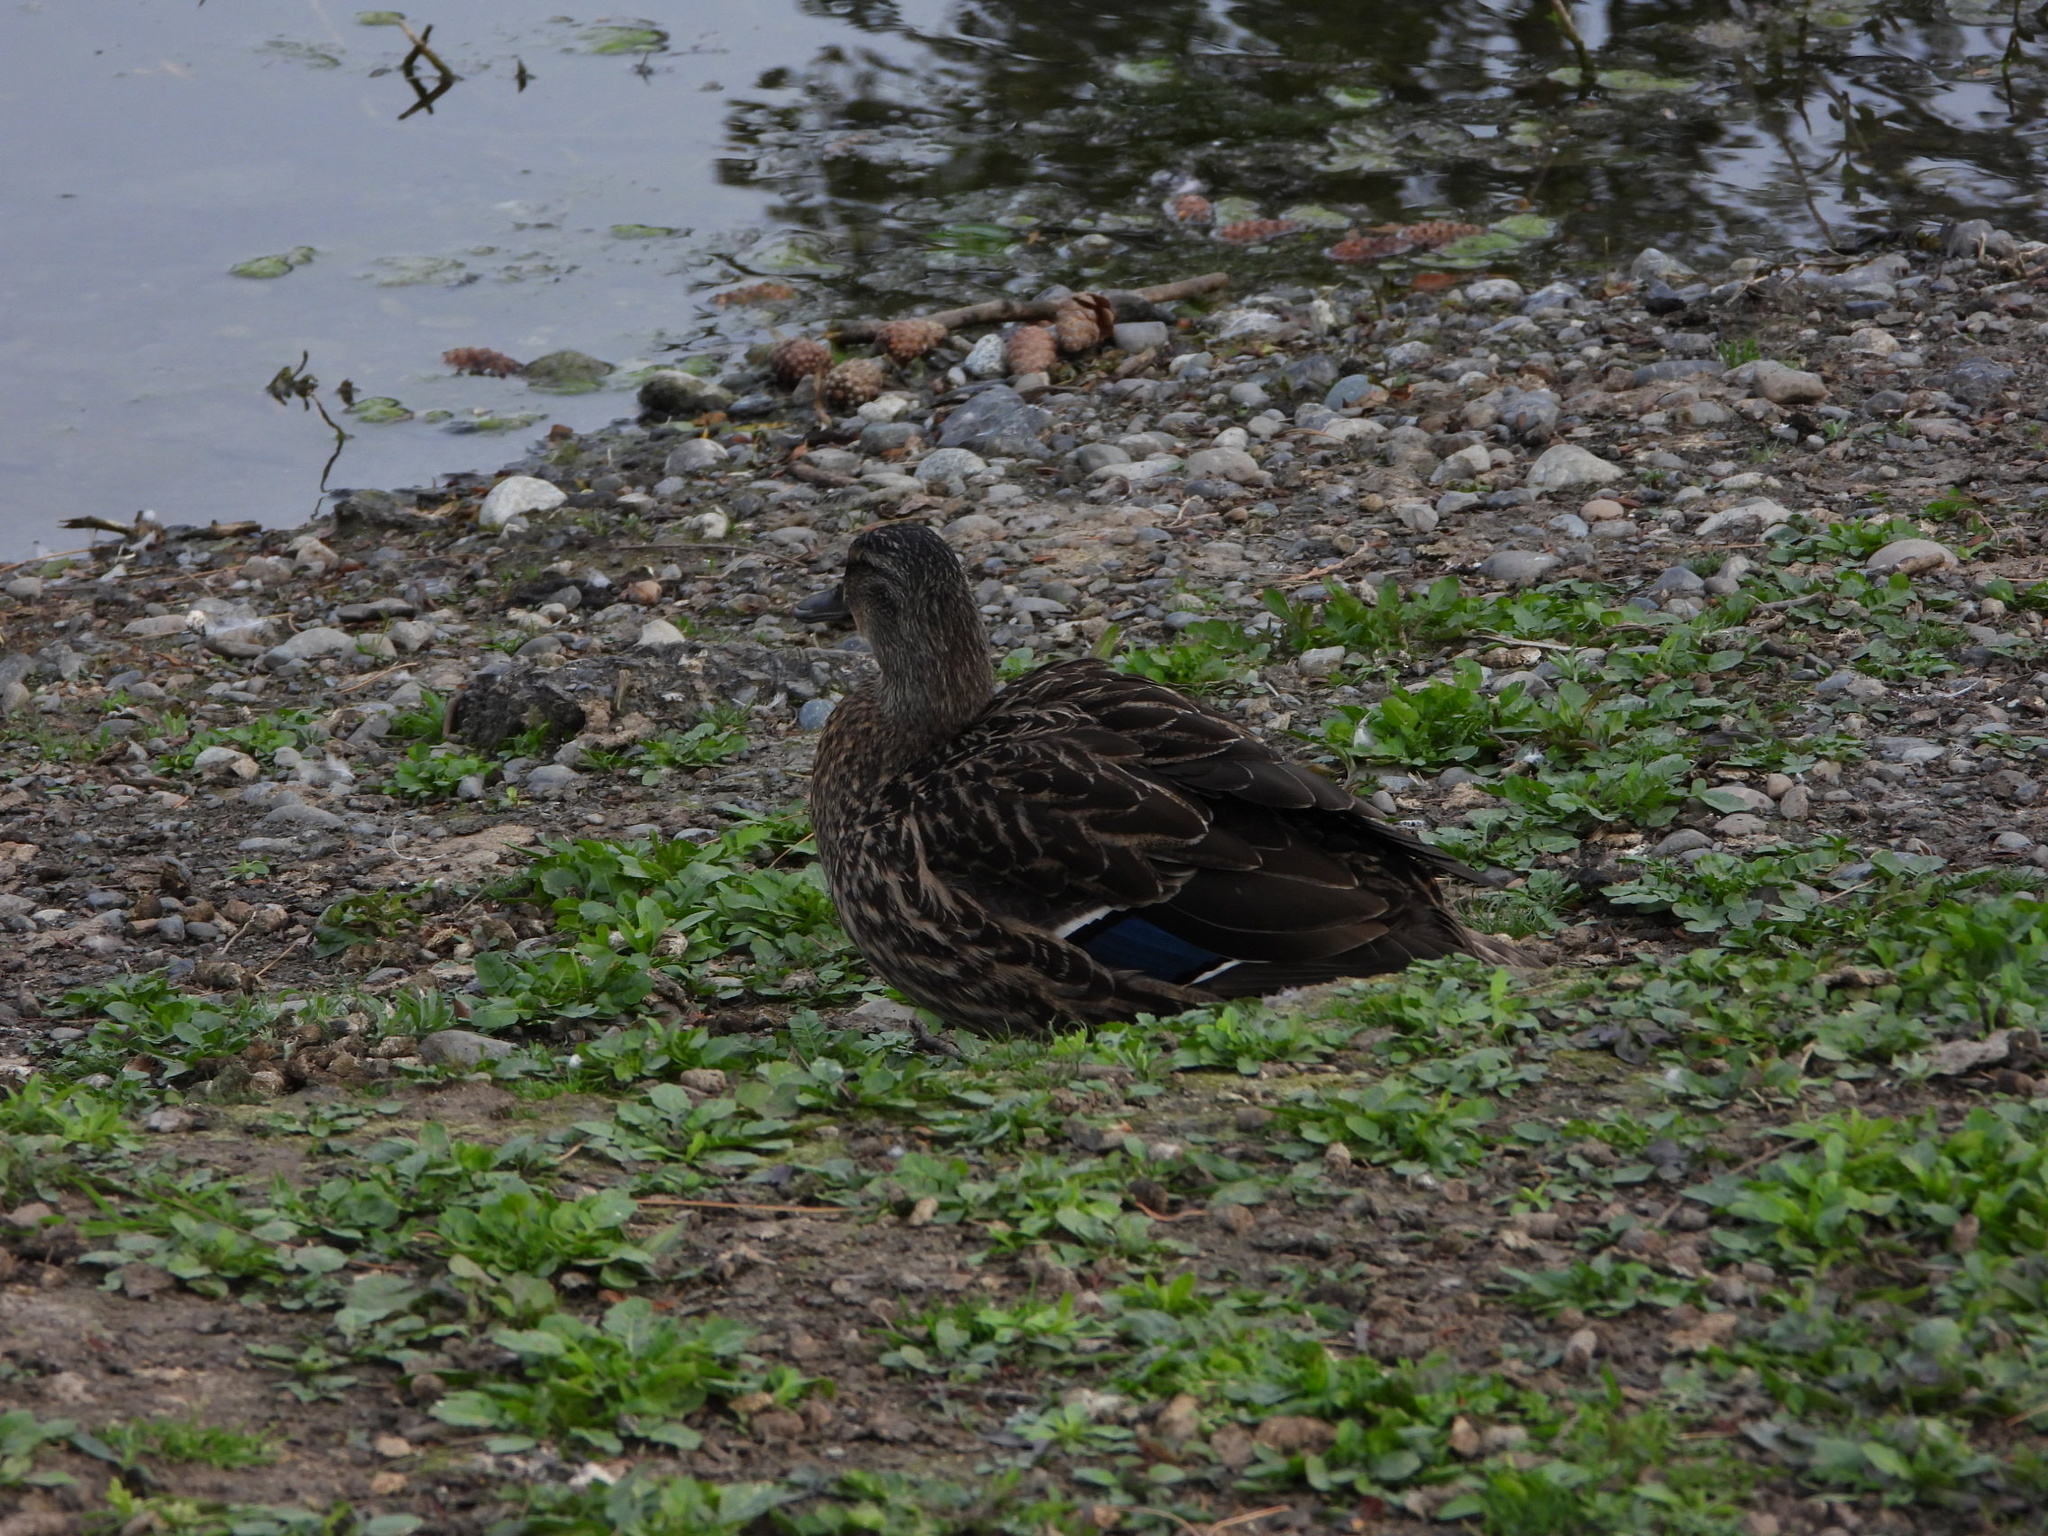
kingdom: Animalia
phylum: Chordata
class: Aves
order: Anseriformes
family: Anatidae
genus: Anas
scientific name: Anas platyrhynchos
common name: Mallard
